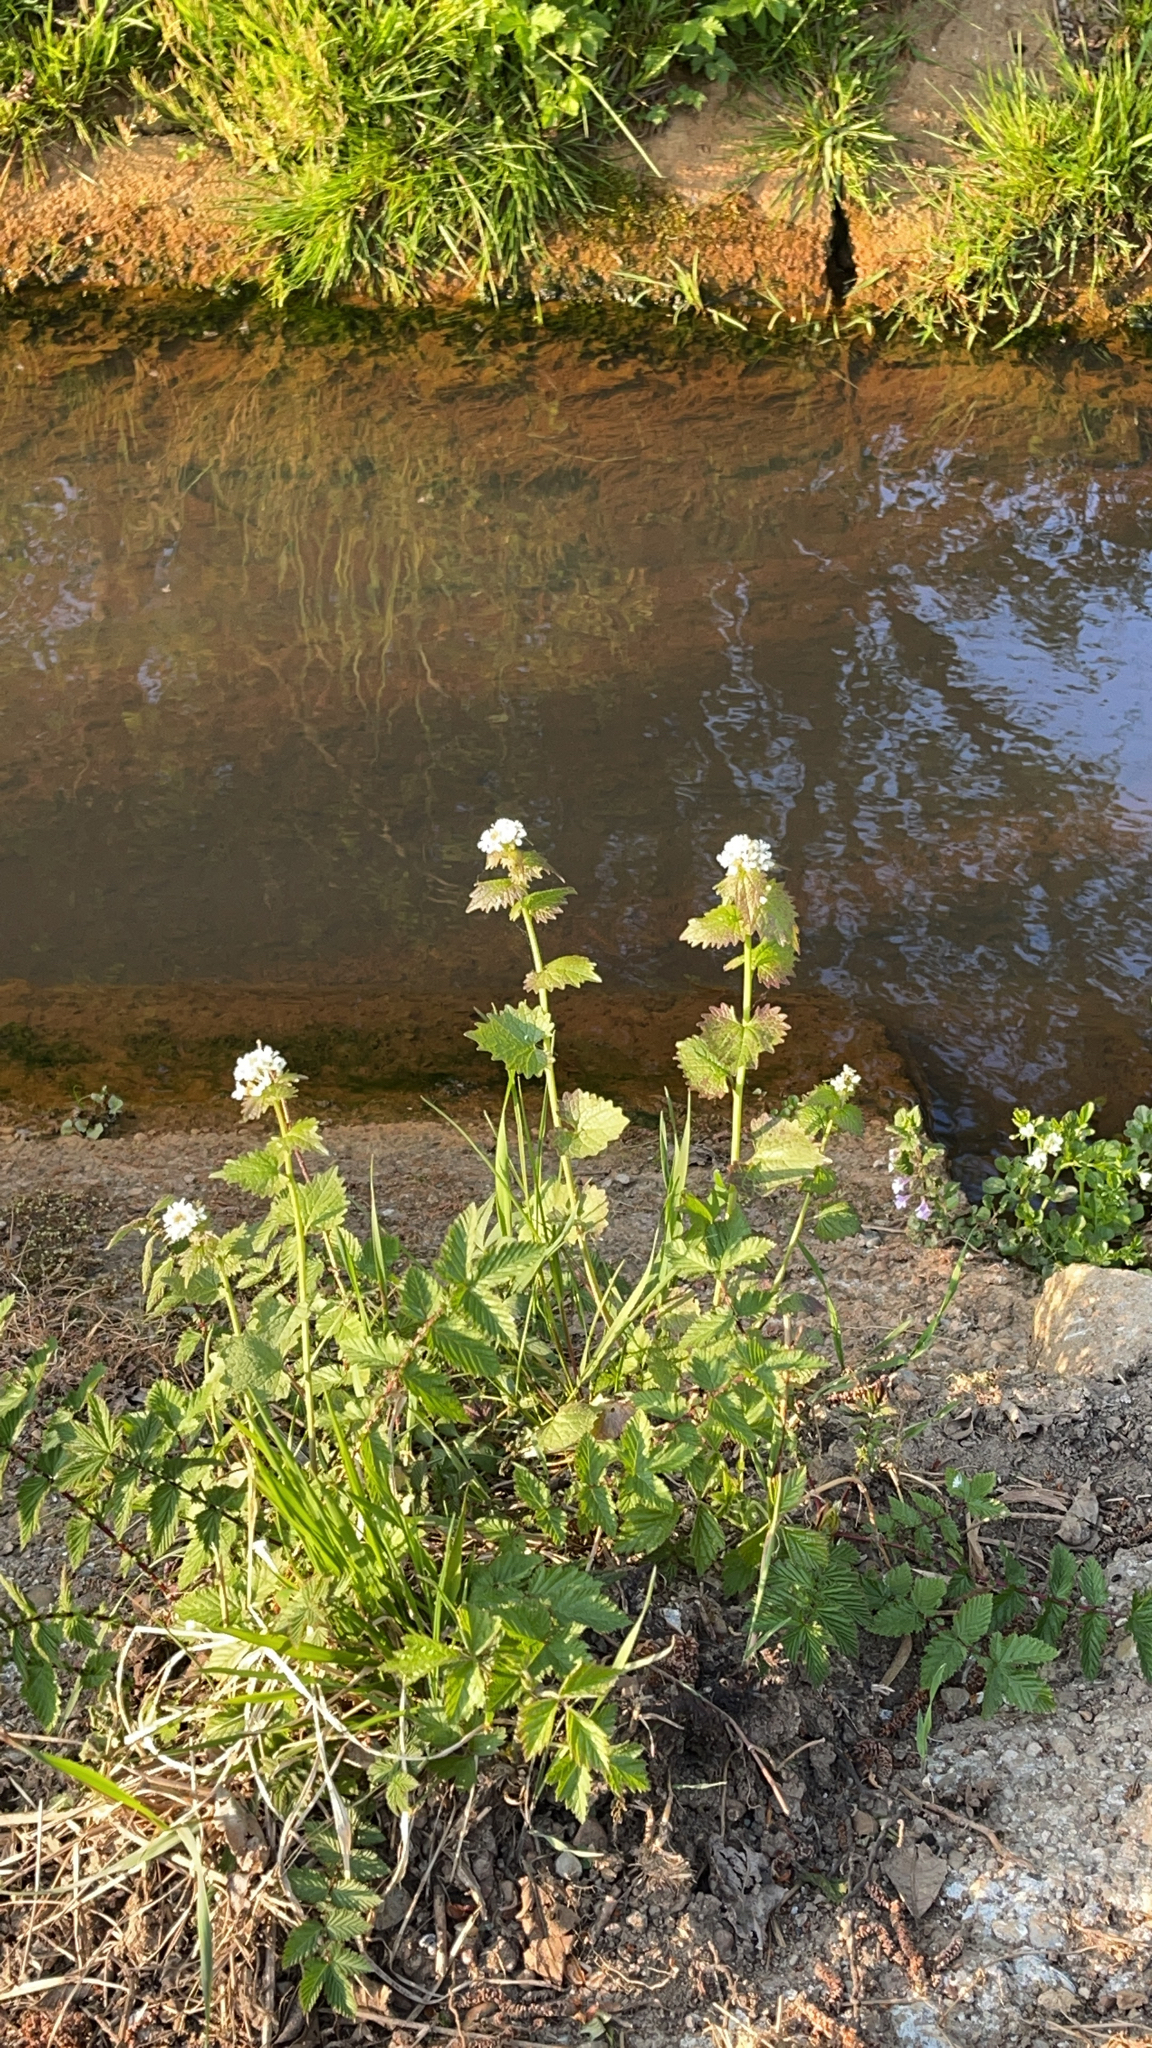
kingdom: Plantae
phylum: Tracheophyta
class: Magnoliopsida
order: Brassicales
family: Brassicaceae
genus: Alliaria
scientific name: Alliaria petiolata
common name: Garlic mustard
